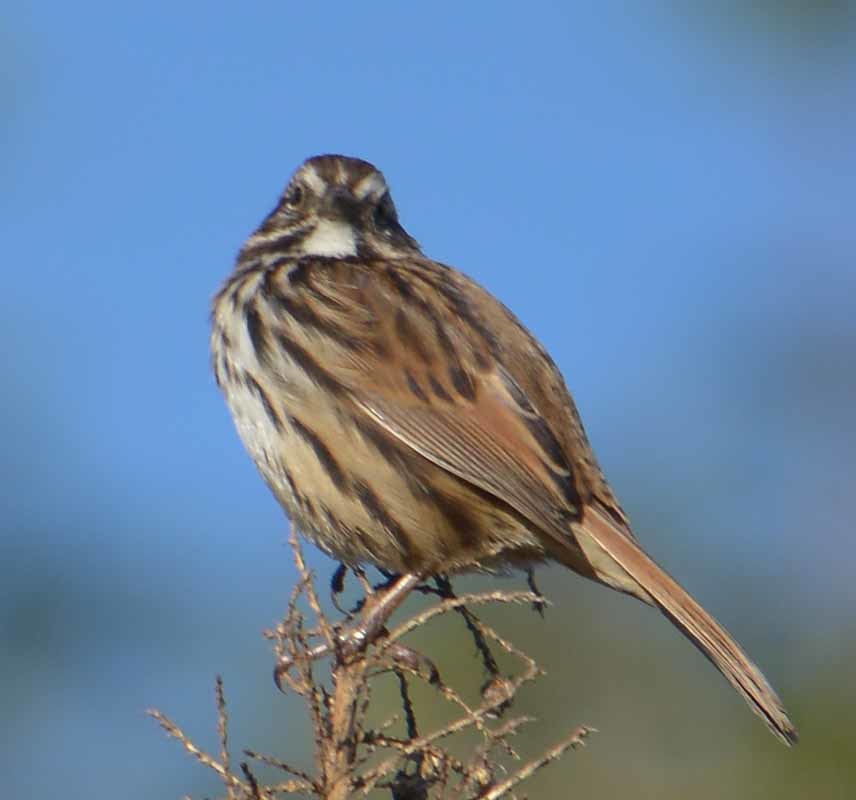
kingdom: Animalia
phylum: Chordata
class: Aves
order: Passeriformes
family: Passerellidae
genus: Melospiza
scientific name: Melospiza melodia
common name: Song sparrow
